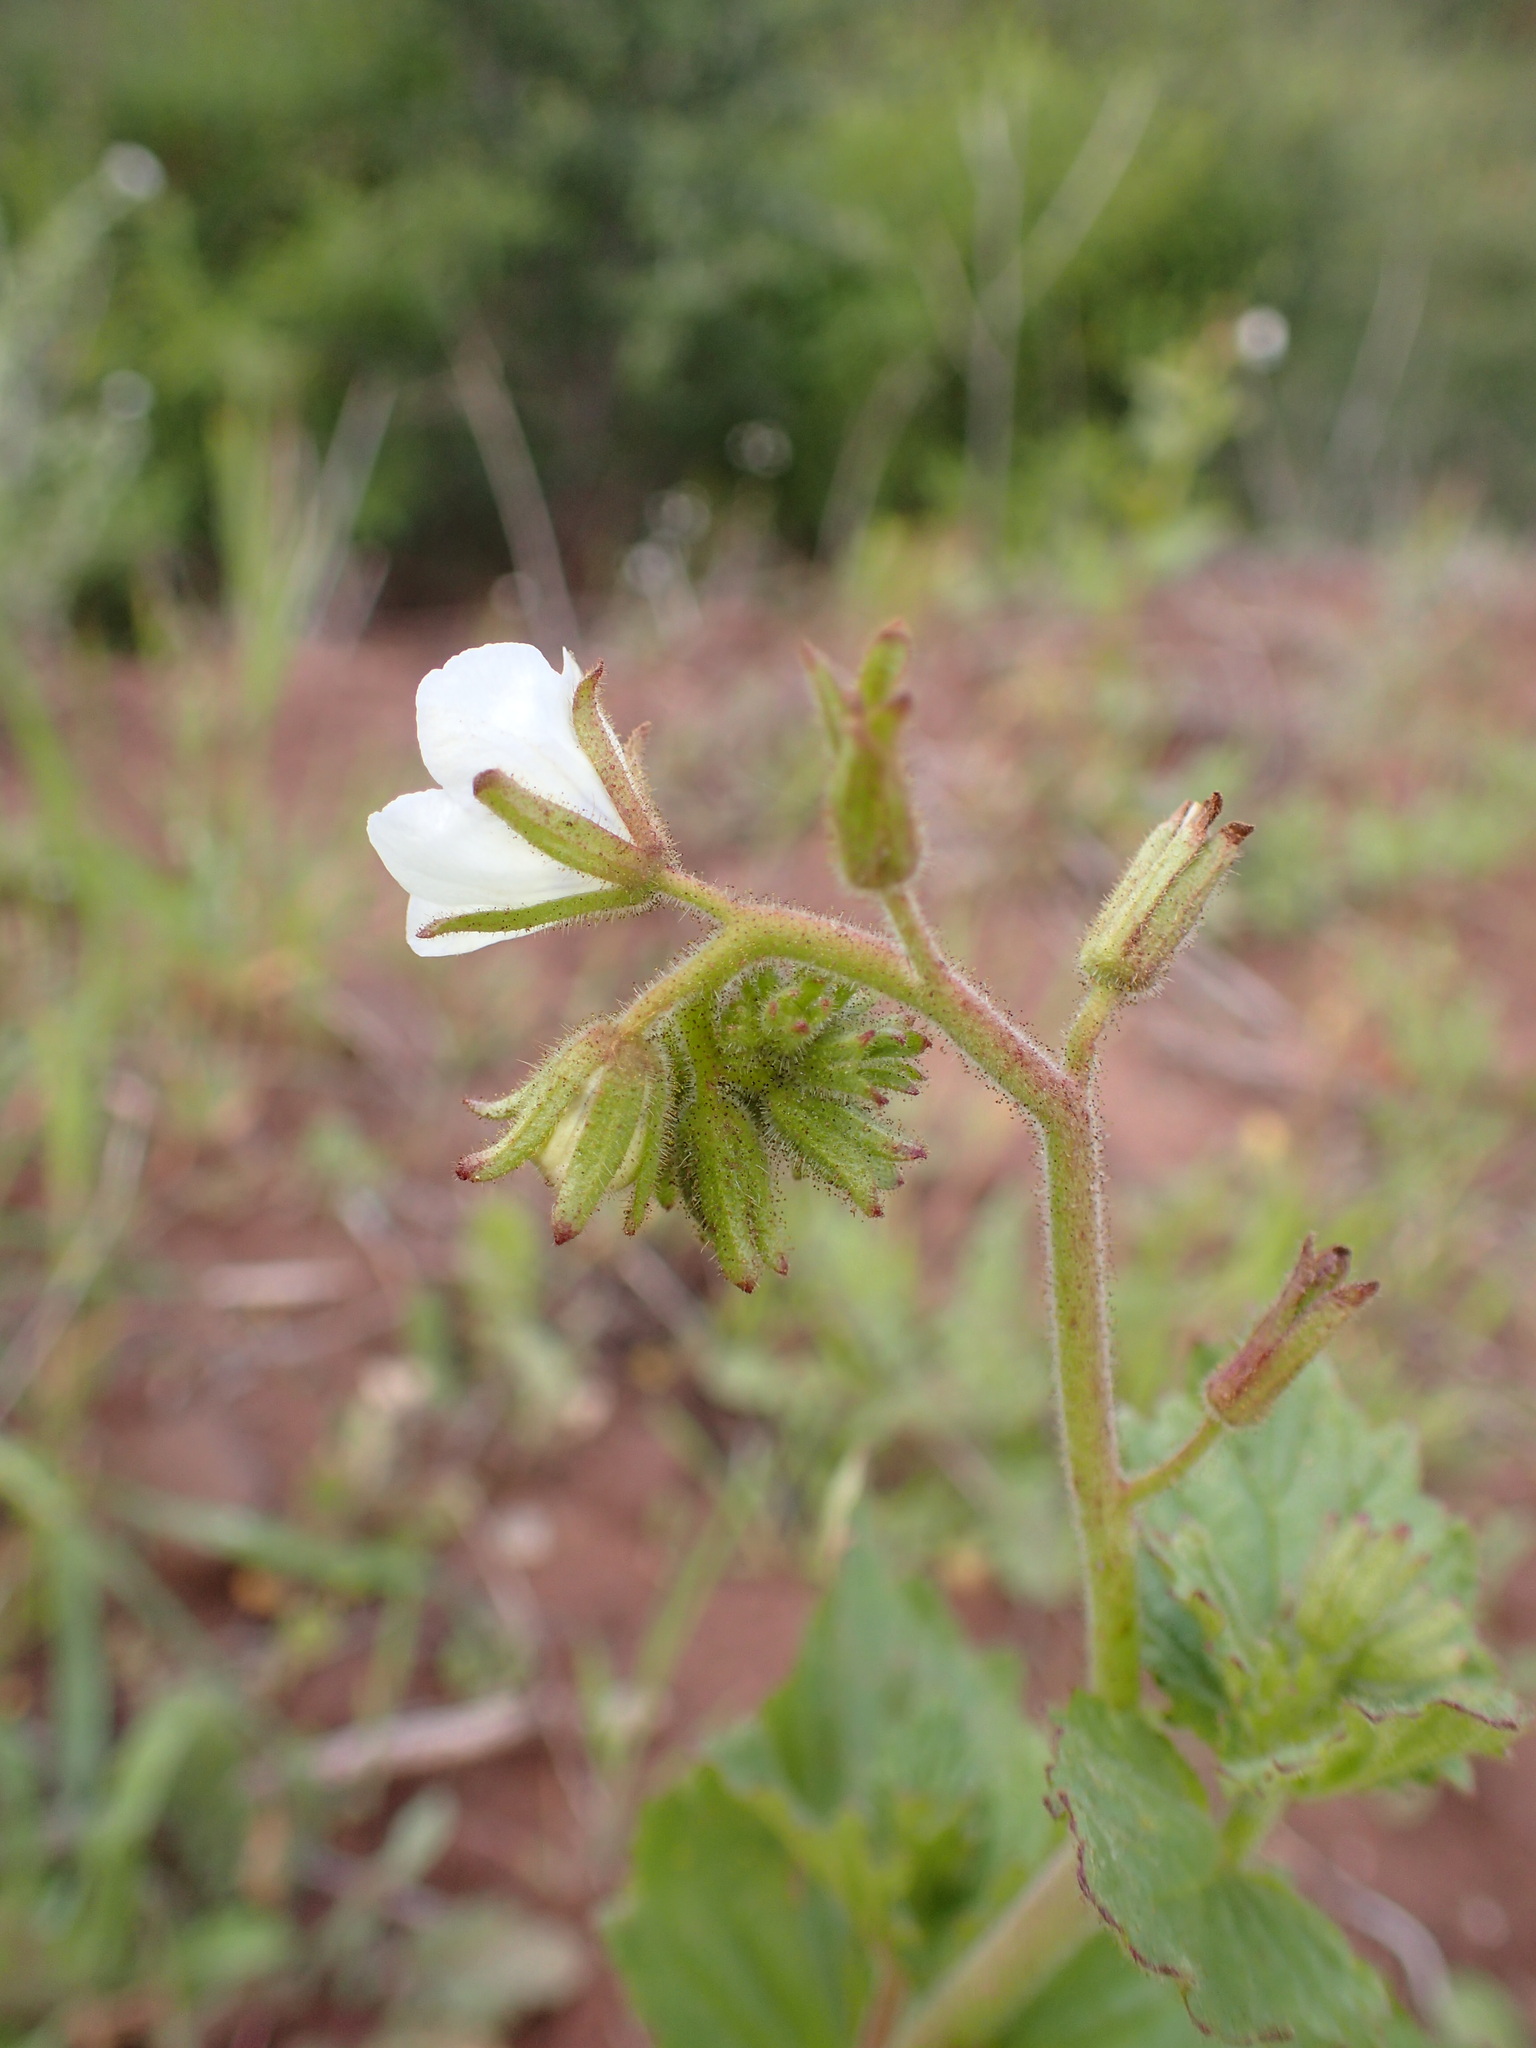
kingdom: Plantae
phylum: Tracheophyta
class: Magnoliopsida
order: Boraginales
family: Hydrophyllaceae
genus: Phacelia
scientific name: Phacelia viscida
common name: Sticky phacelia
